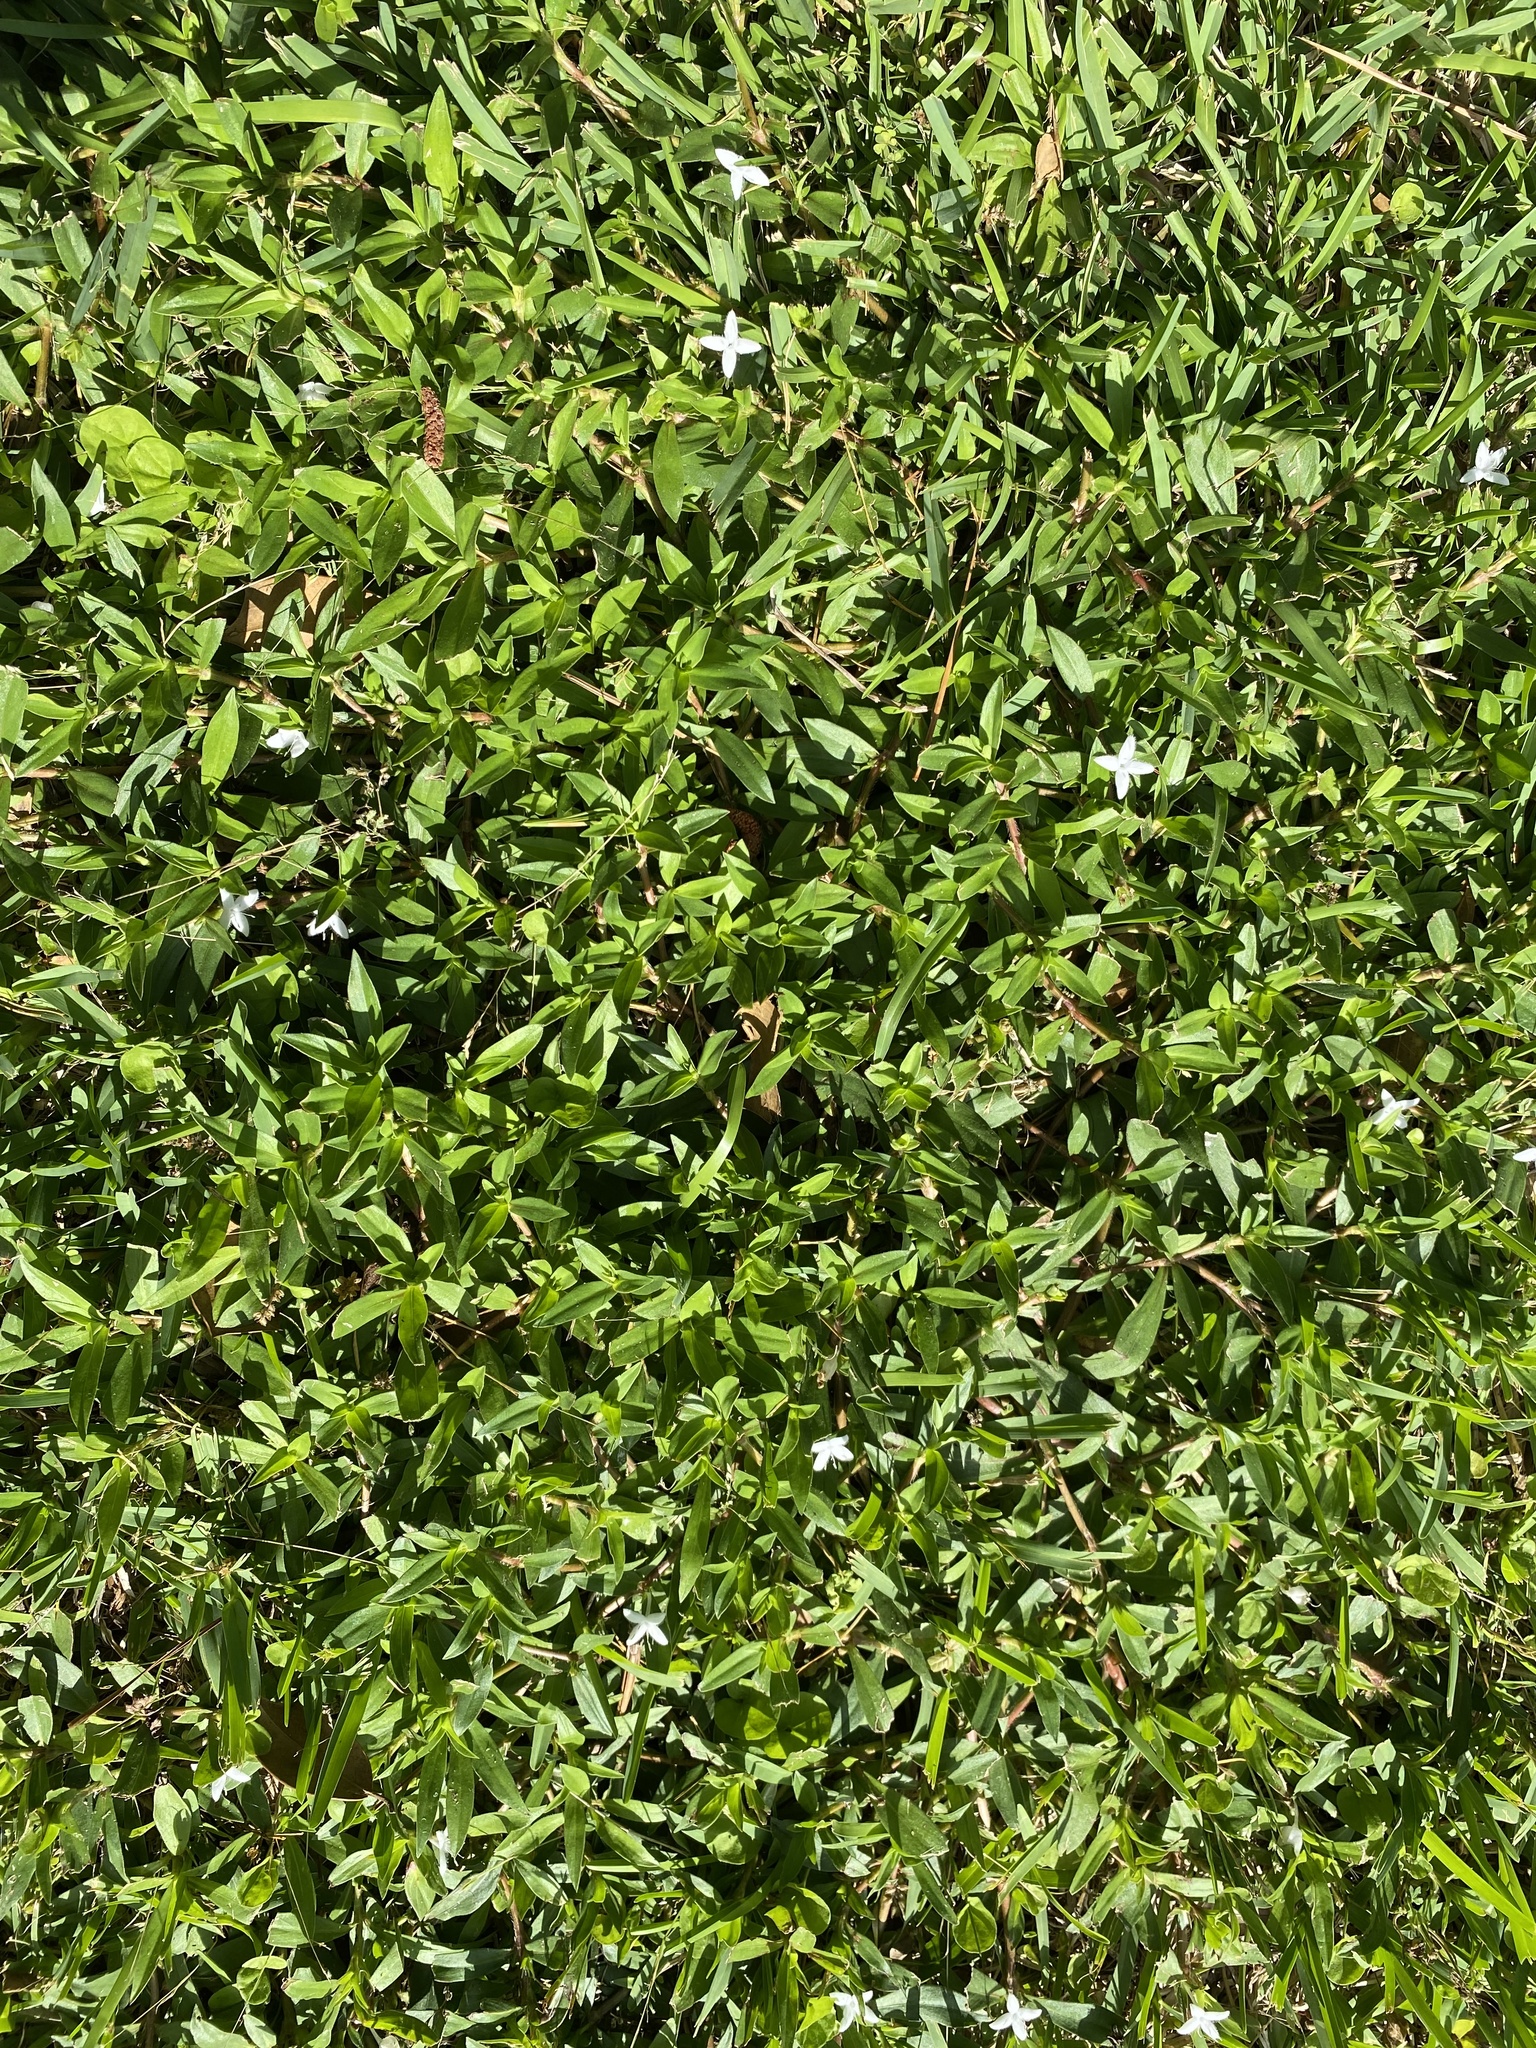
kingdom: Plantae
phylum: Tracheophyta
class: Magnoliopsida
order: Gentianales
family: Rubiaceae
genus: Diodia
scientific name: Diodia virginiana
